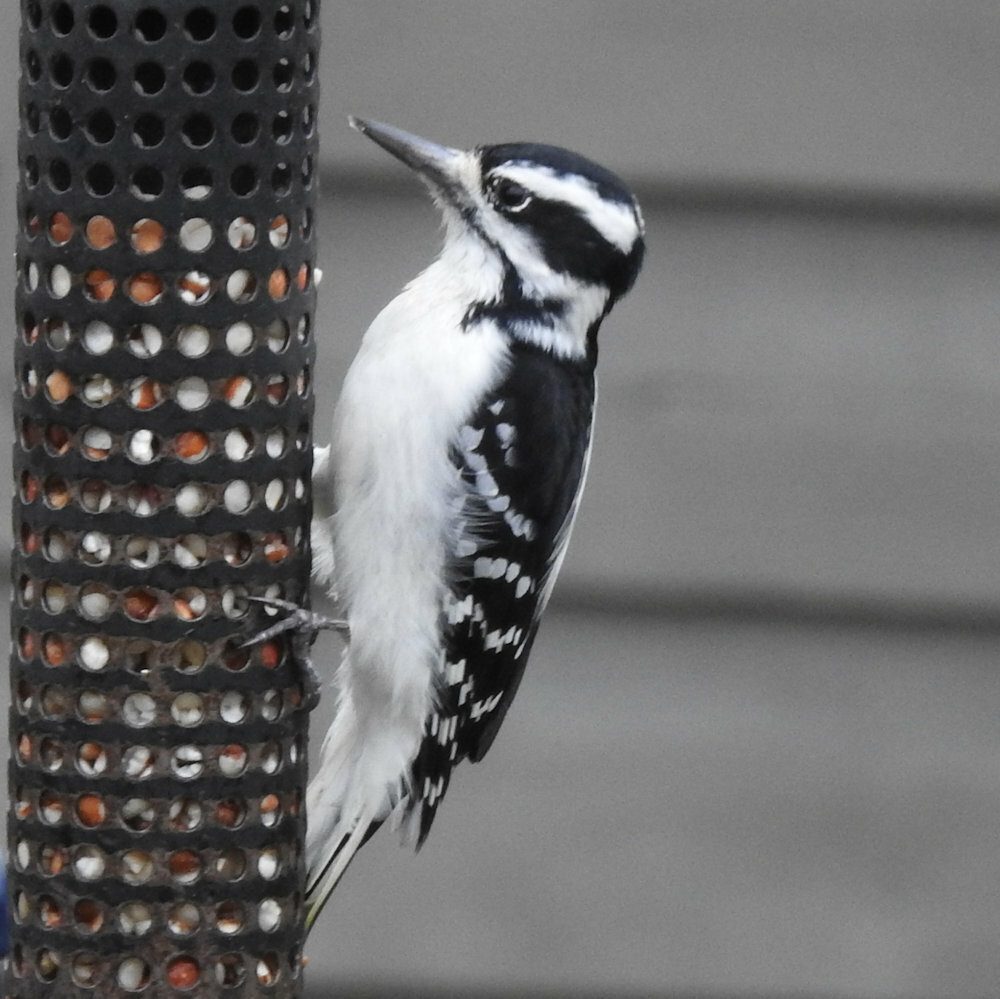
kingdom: Animalia
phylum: Chordata
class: Aves
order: Piciformes
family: Picidae
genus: Leuconotopicus
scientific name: Leuconotopicus villosus
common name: Hairy woodpecker
